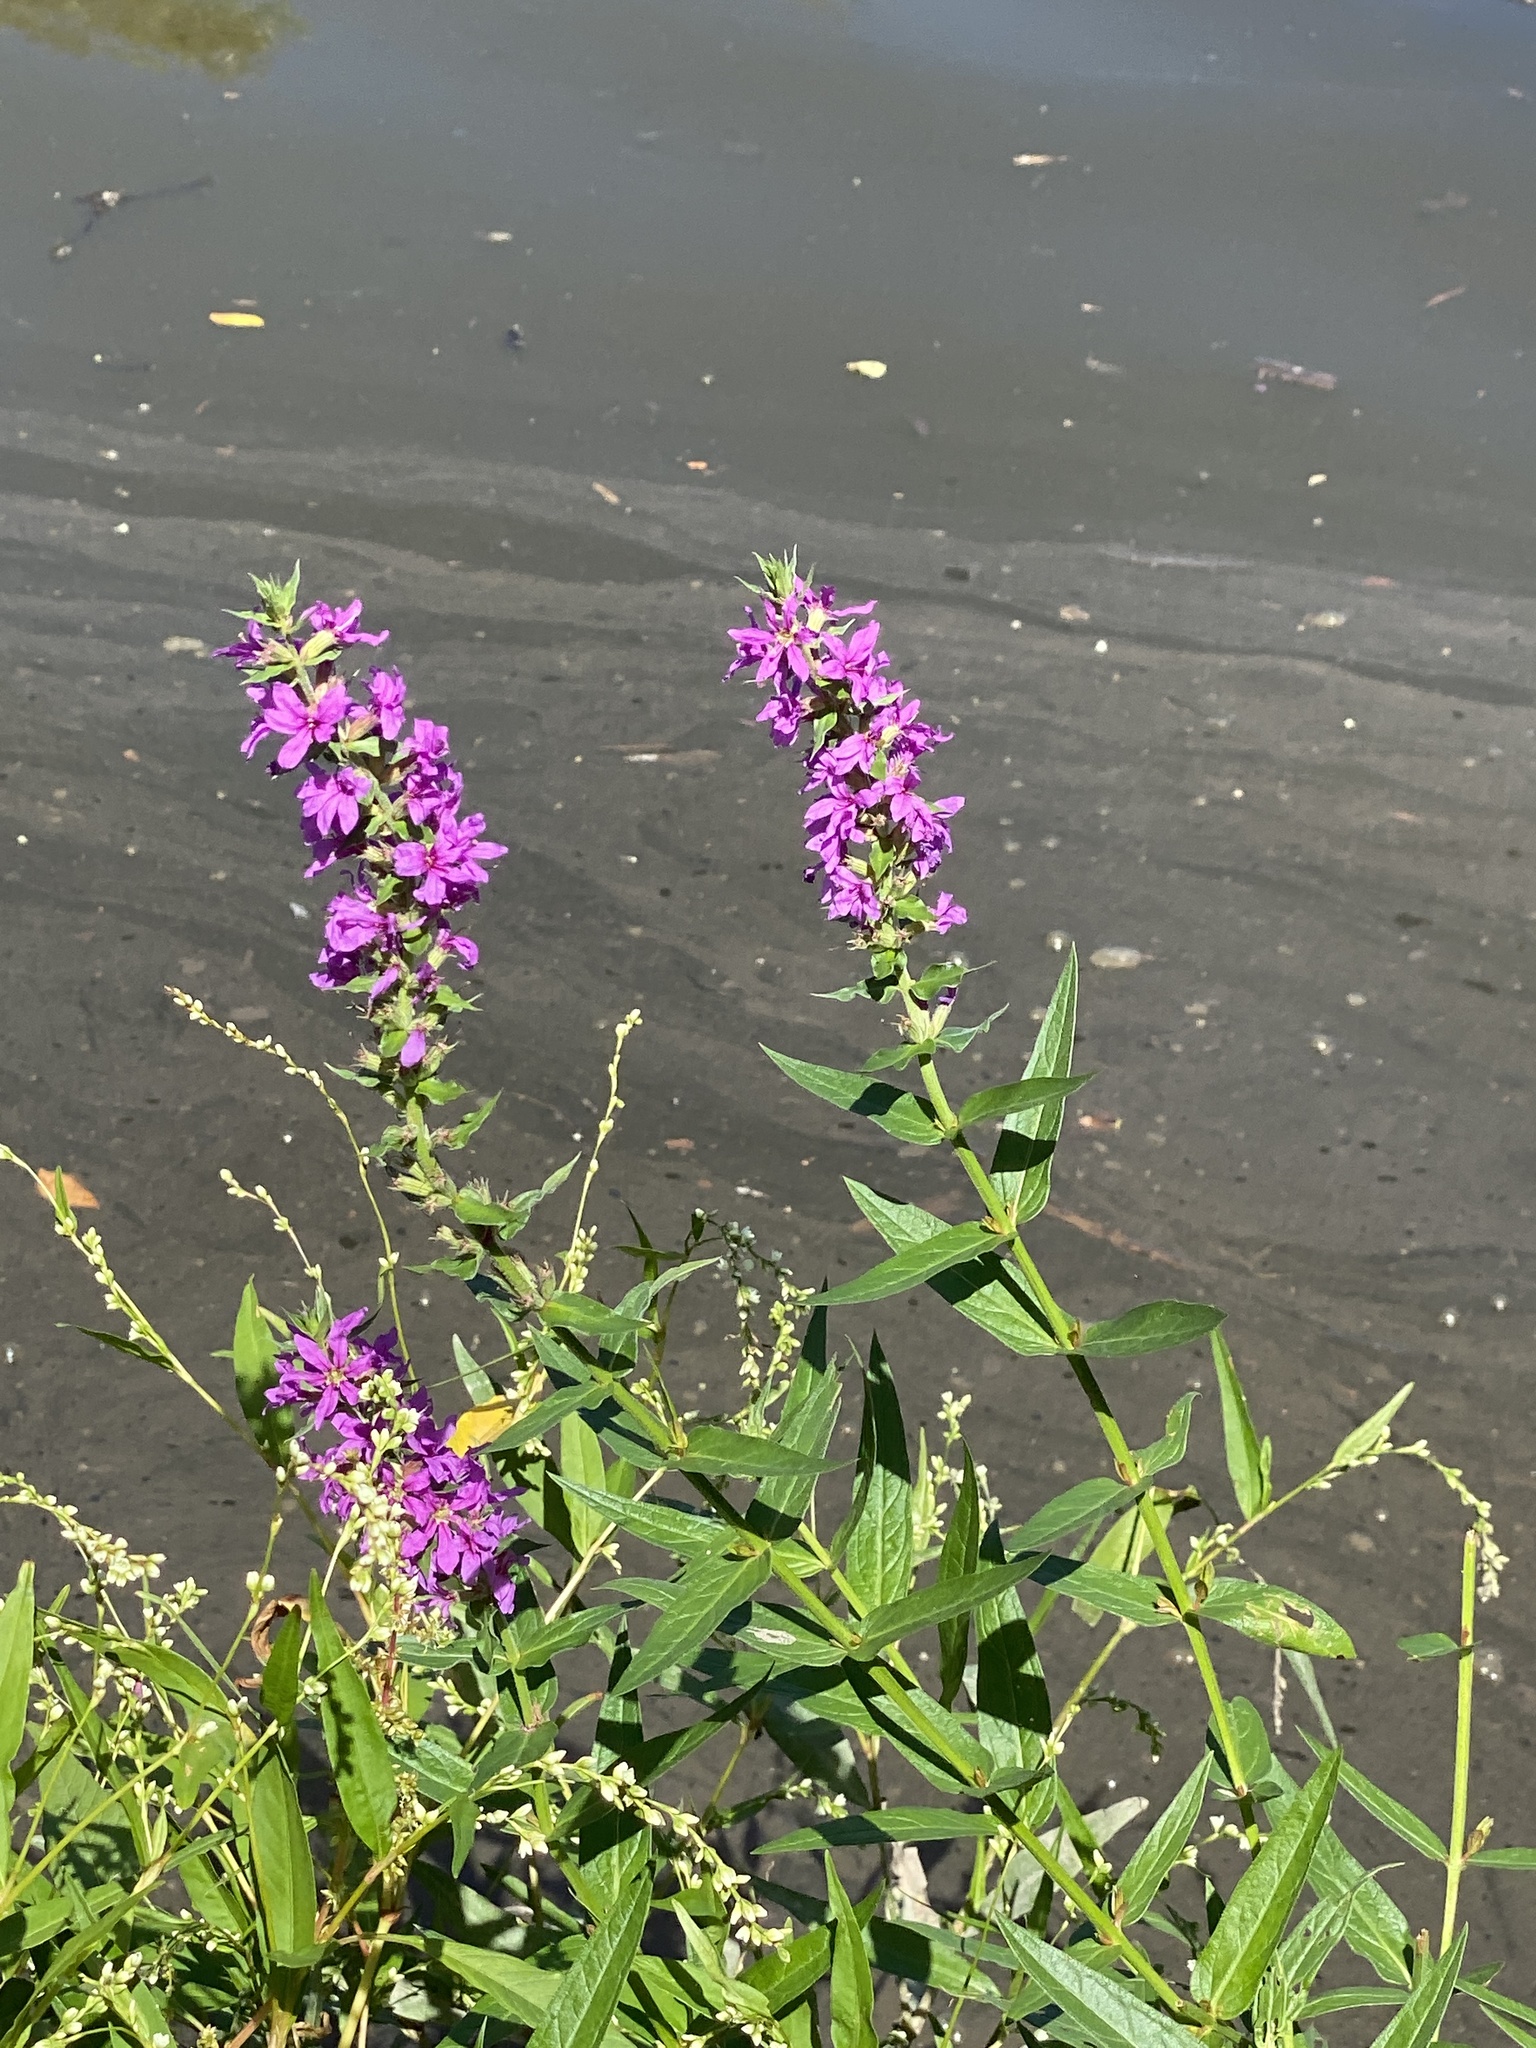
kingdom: Plantae
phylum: Tracheophyta
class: Magnoliopsida
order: Myrtales
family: Lythraceae
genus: Lythrum
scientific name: Lythrum salicaria
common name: Purple loosestrife
